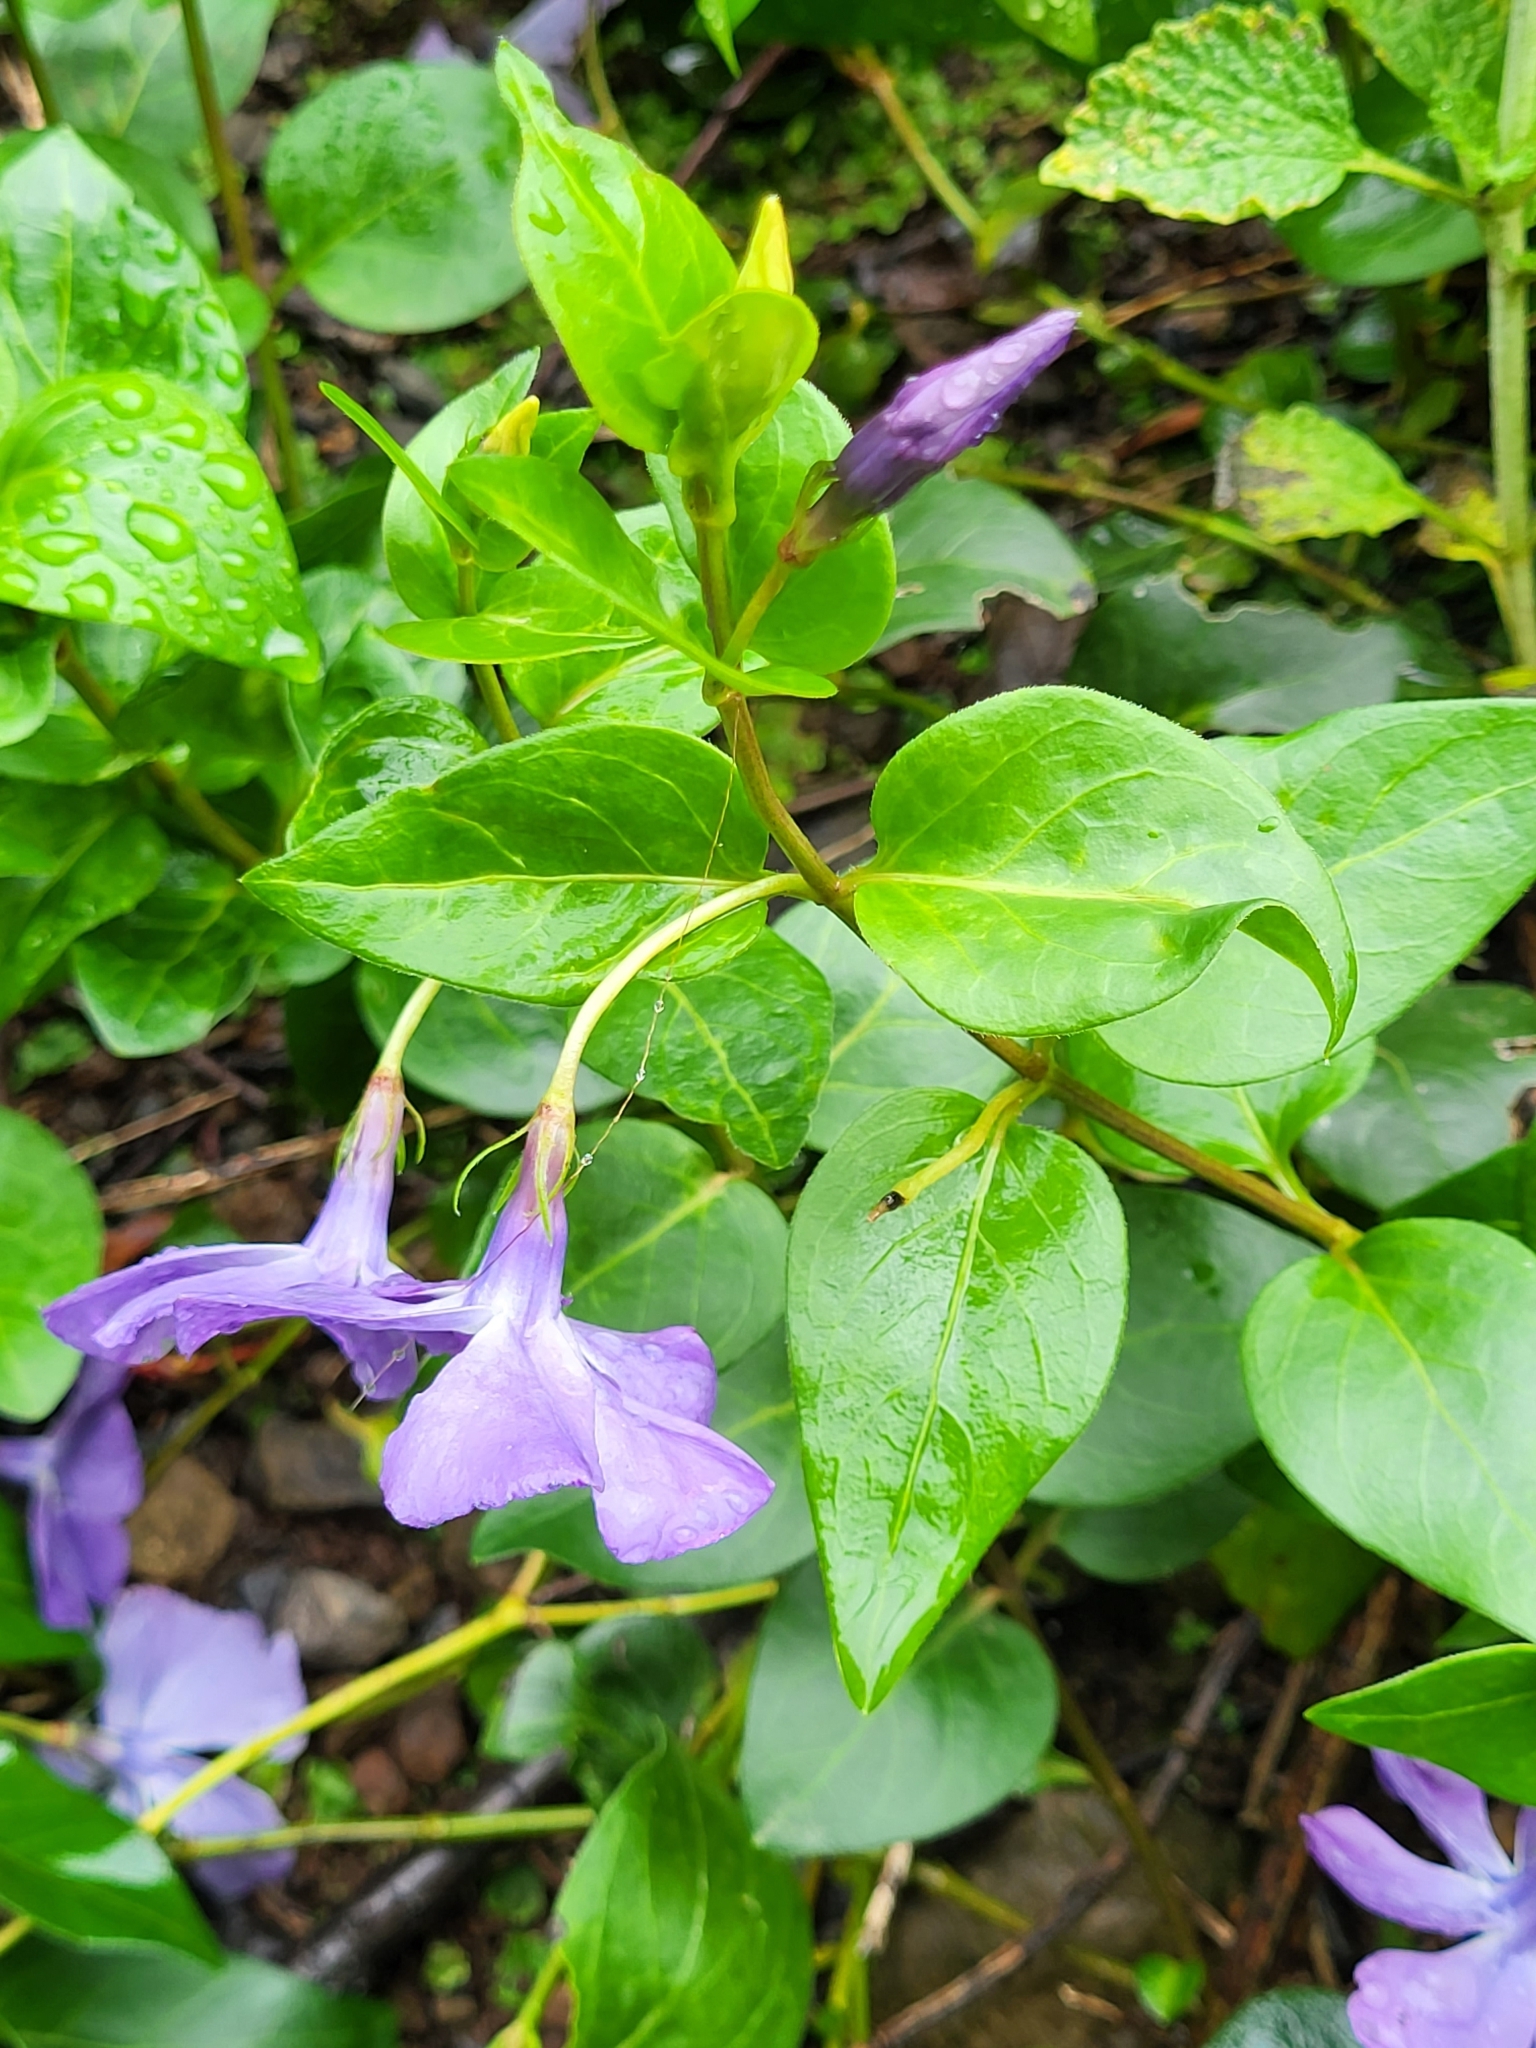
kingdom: Plantae
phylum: Tracheophyta
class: Magnoliopsida
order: Gentianales
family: Apocynaceae
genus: Vinca
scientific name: Vinca major
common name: Greater periwinkle
